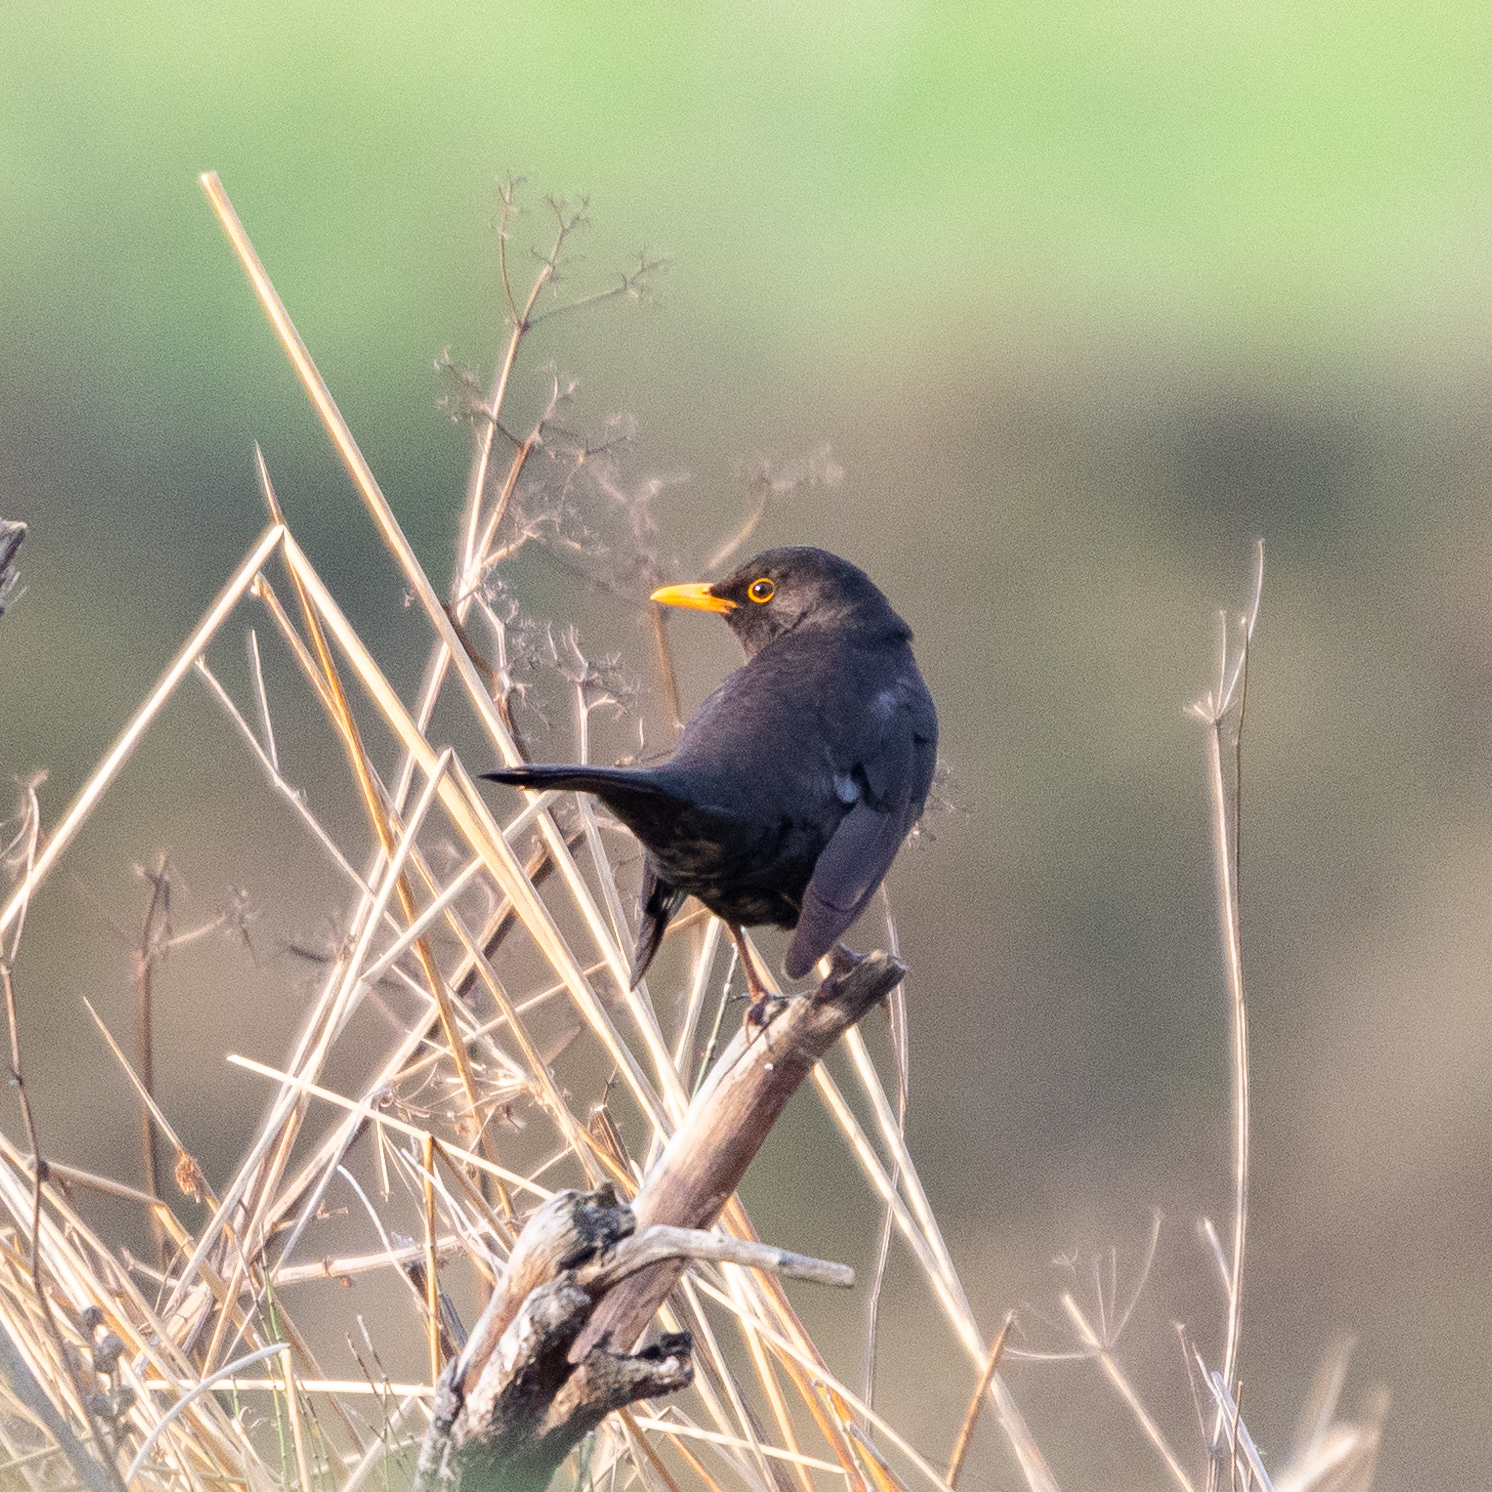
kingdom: Animalia
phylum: Chordata
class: Aves
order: Passeriformes
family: Turdidae
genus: Turdus
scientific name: Turdus merula
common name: Common blackbird
